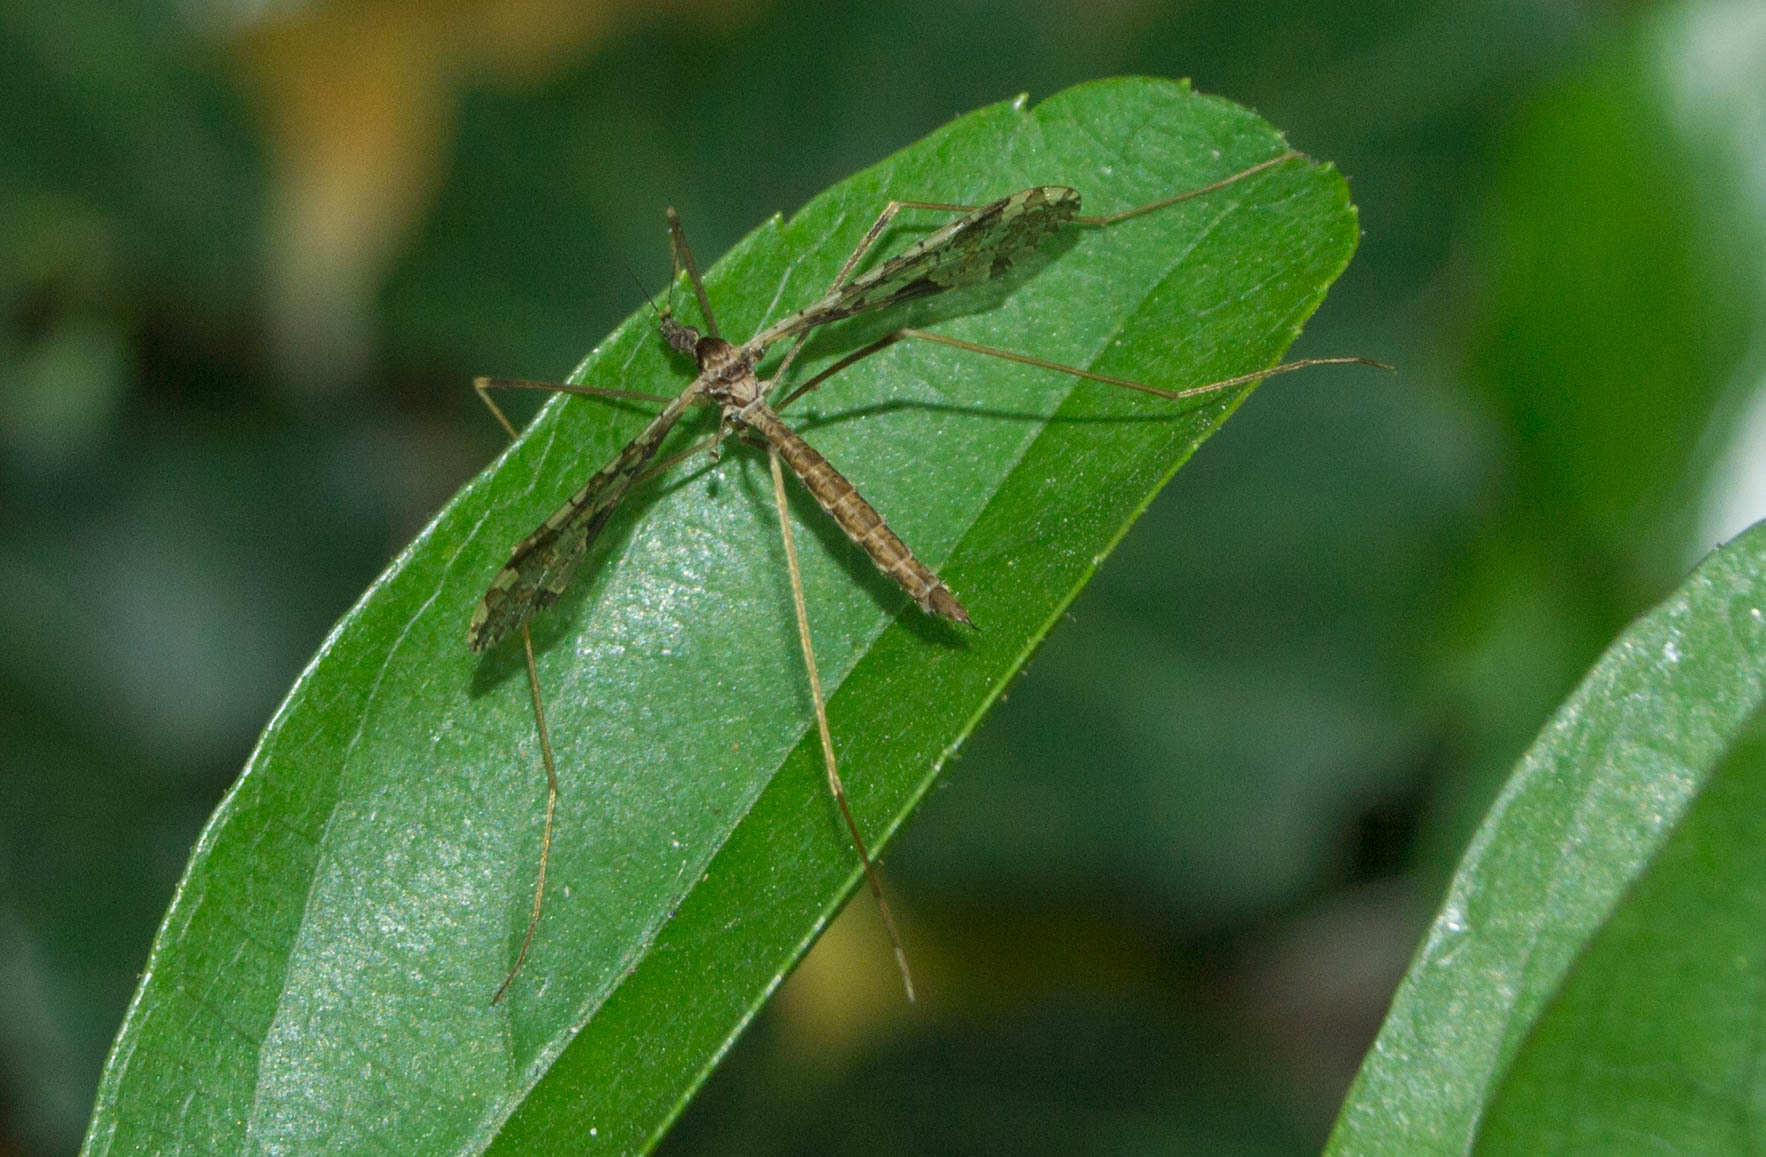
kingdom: Animalia
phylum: Arthropoda
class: Insecta
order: Diptera
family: Limoniidae
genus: Epiphragma
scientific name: Epiphragma imitans
